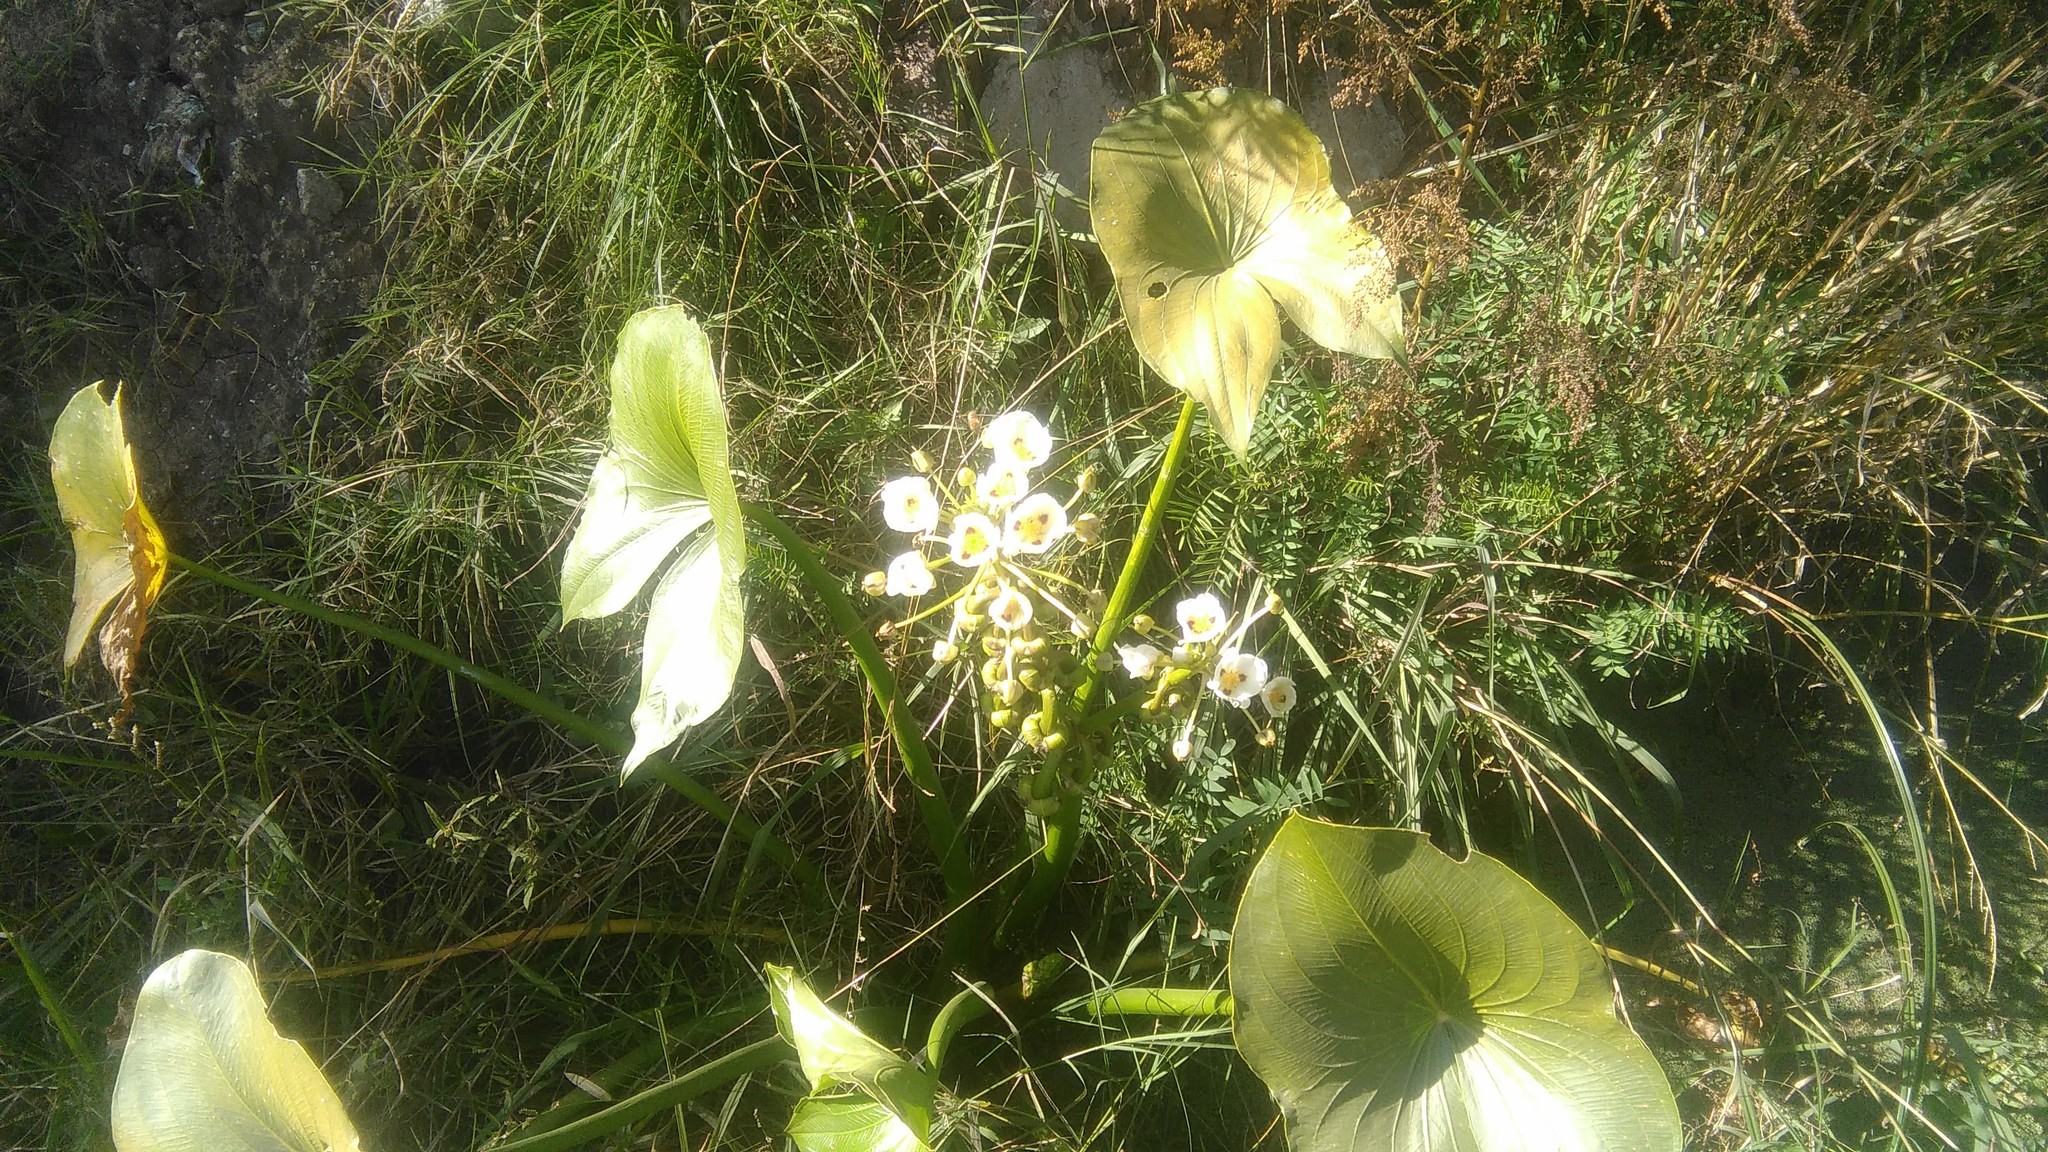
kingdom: Plantae
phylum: Tracheophyta
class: Liliopsida
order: Alismatales
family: Alismataceae
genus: Sagittaria
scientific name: Sagittaria montevidensis
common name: Giant arrowhead
